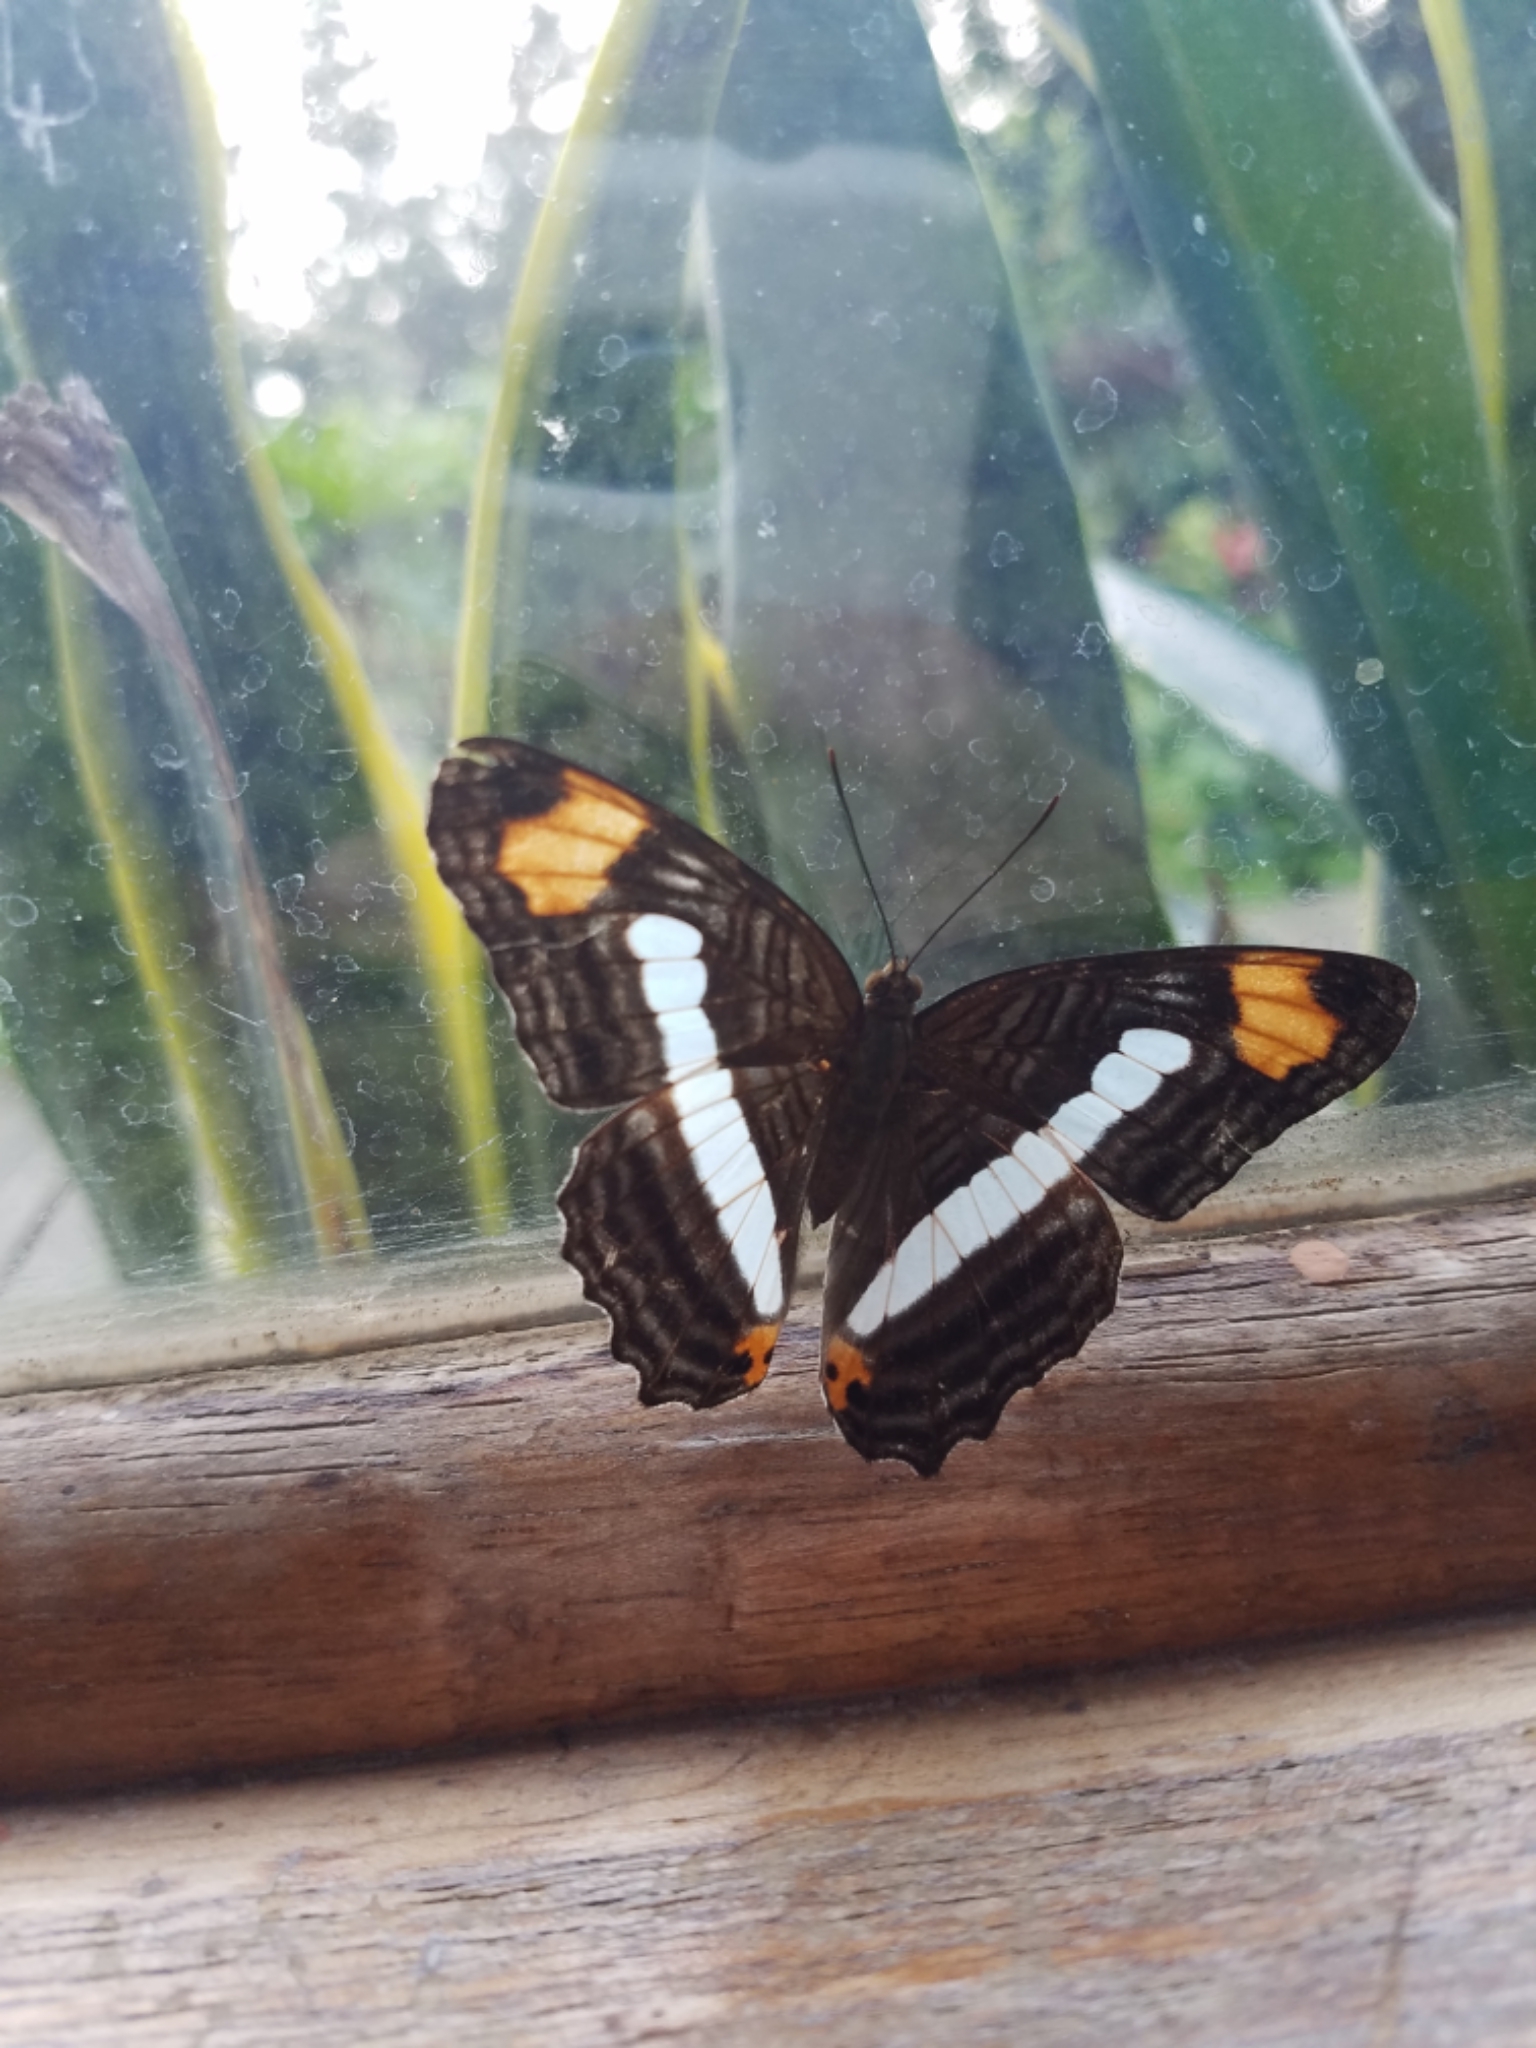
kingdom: Animalia
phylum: Arthropoda
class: Insecta
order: Lepidoptera
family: Nymphalidae
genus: Limenitis
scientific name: Limenitis iphiclus
